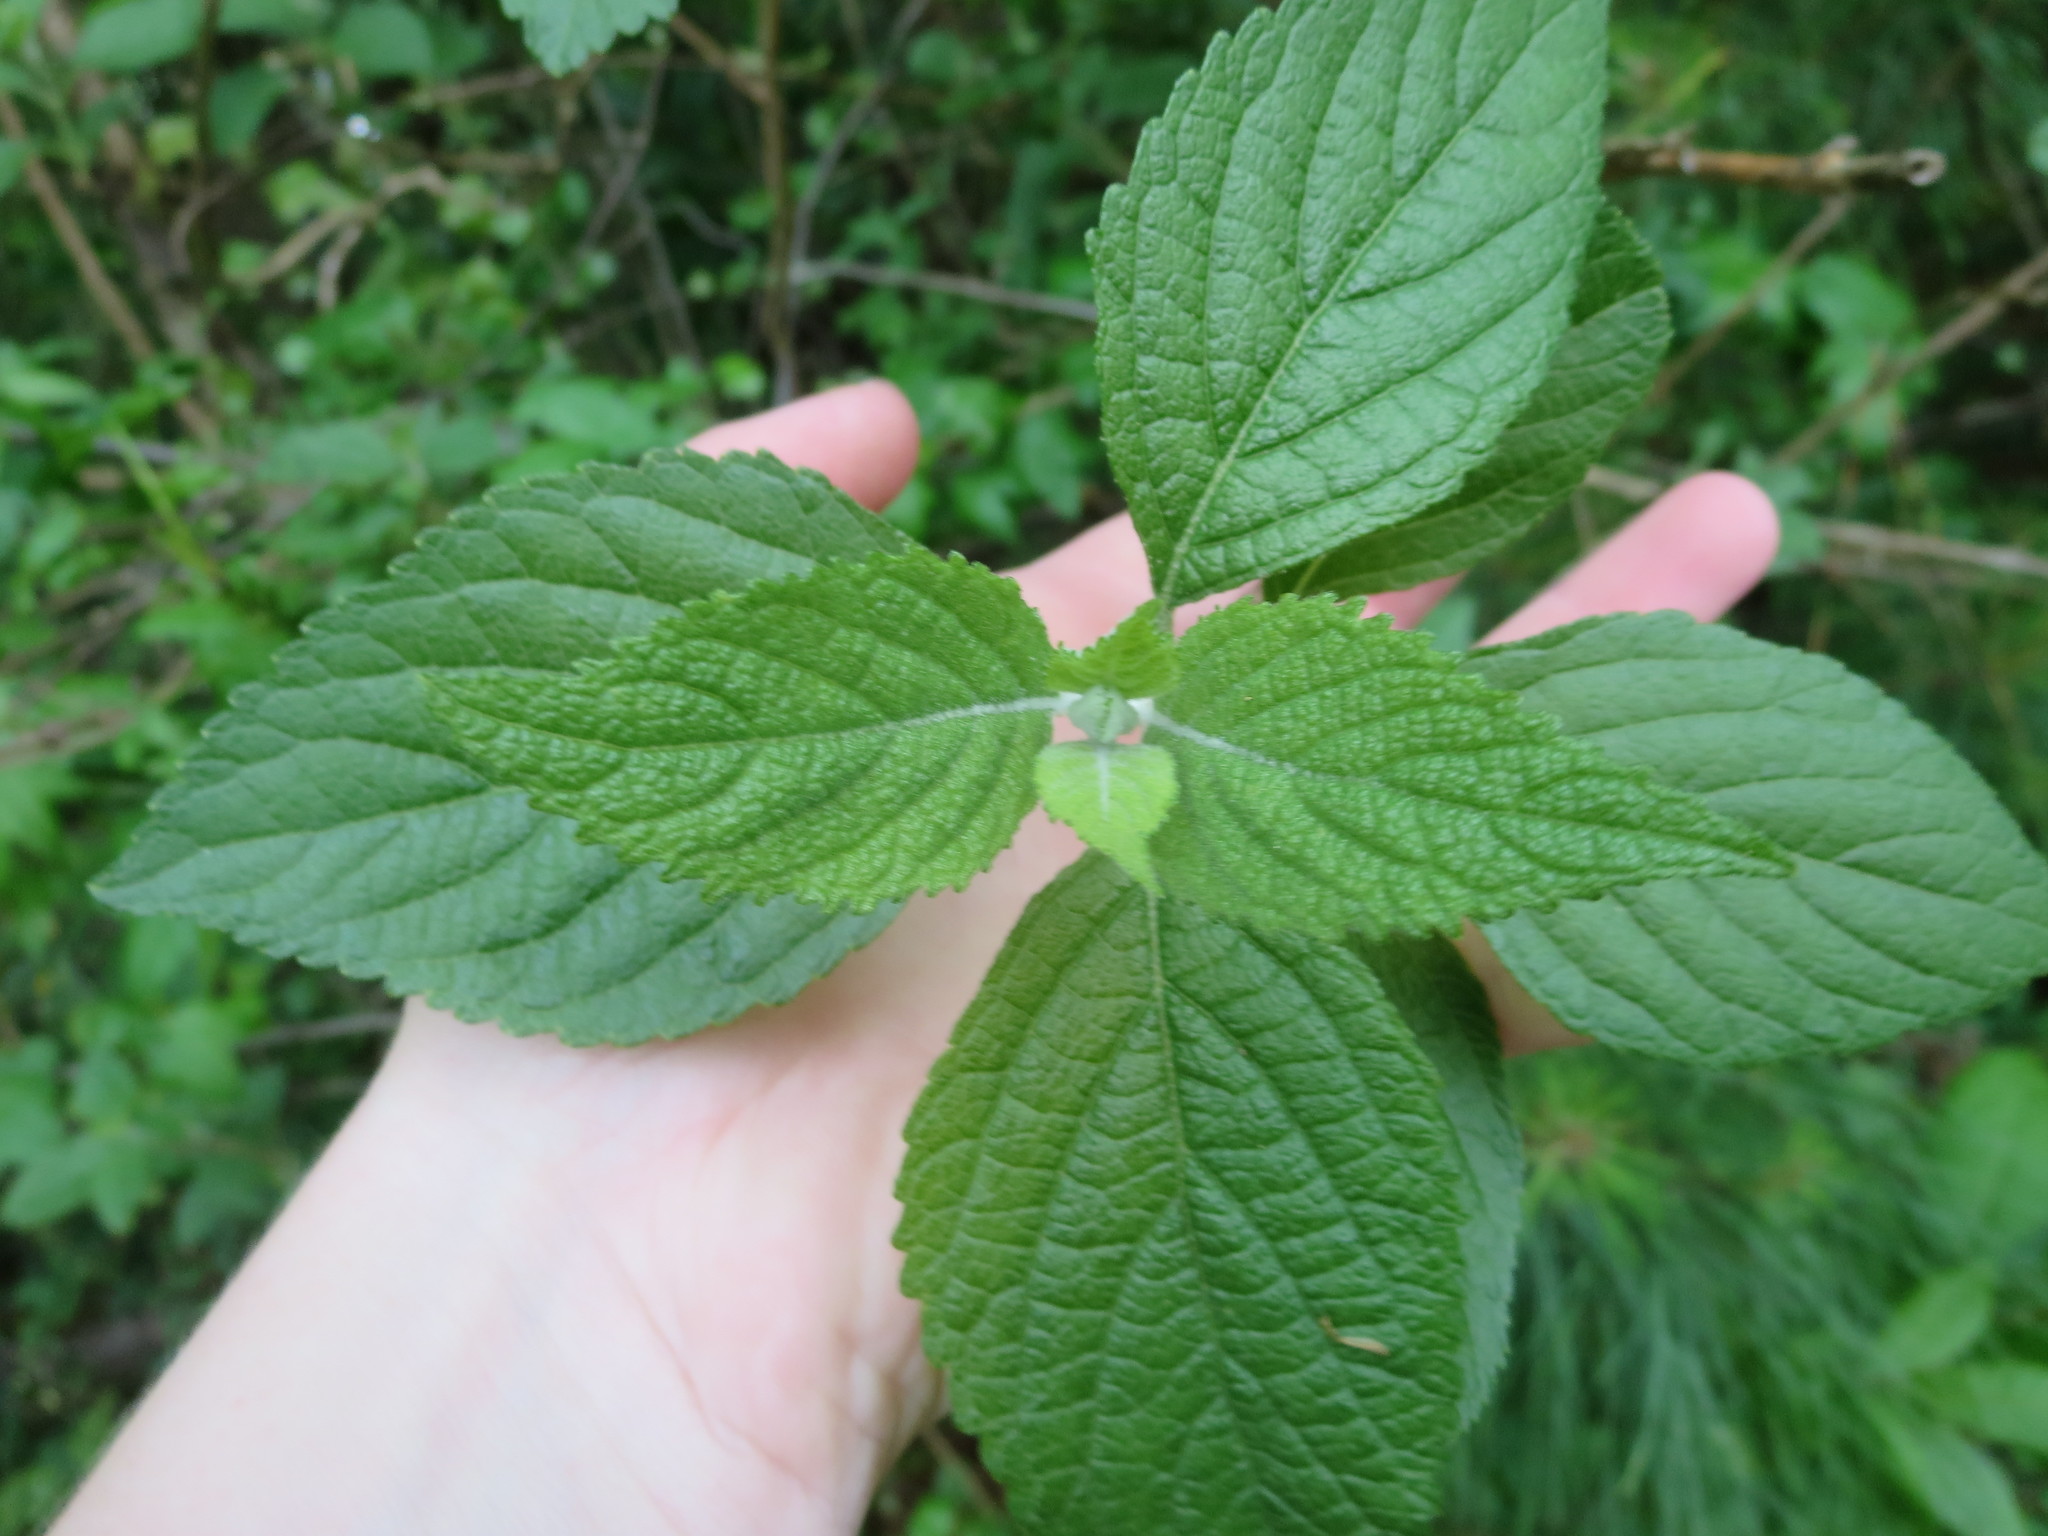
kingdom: Plantae
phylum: Tracheophyta
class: Magnoliopsida
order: Lamiales
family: Lamiaceae
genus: Callicarpa
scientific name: Callicarpa americana
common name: American beautyberry
